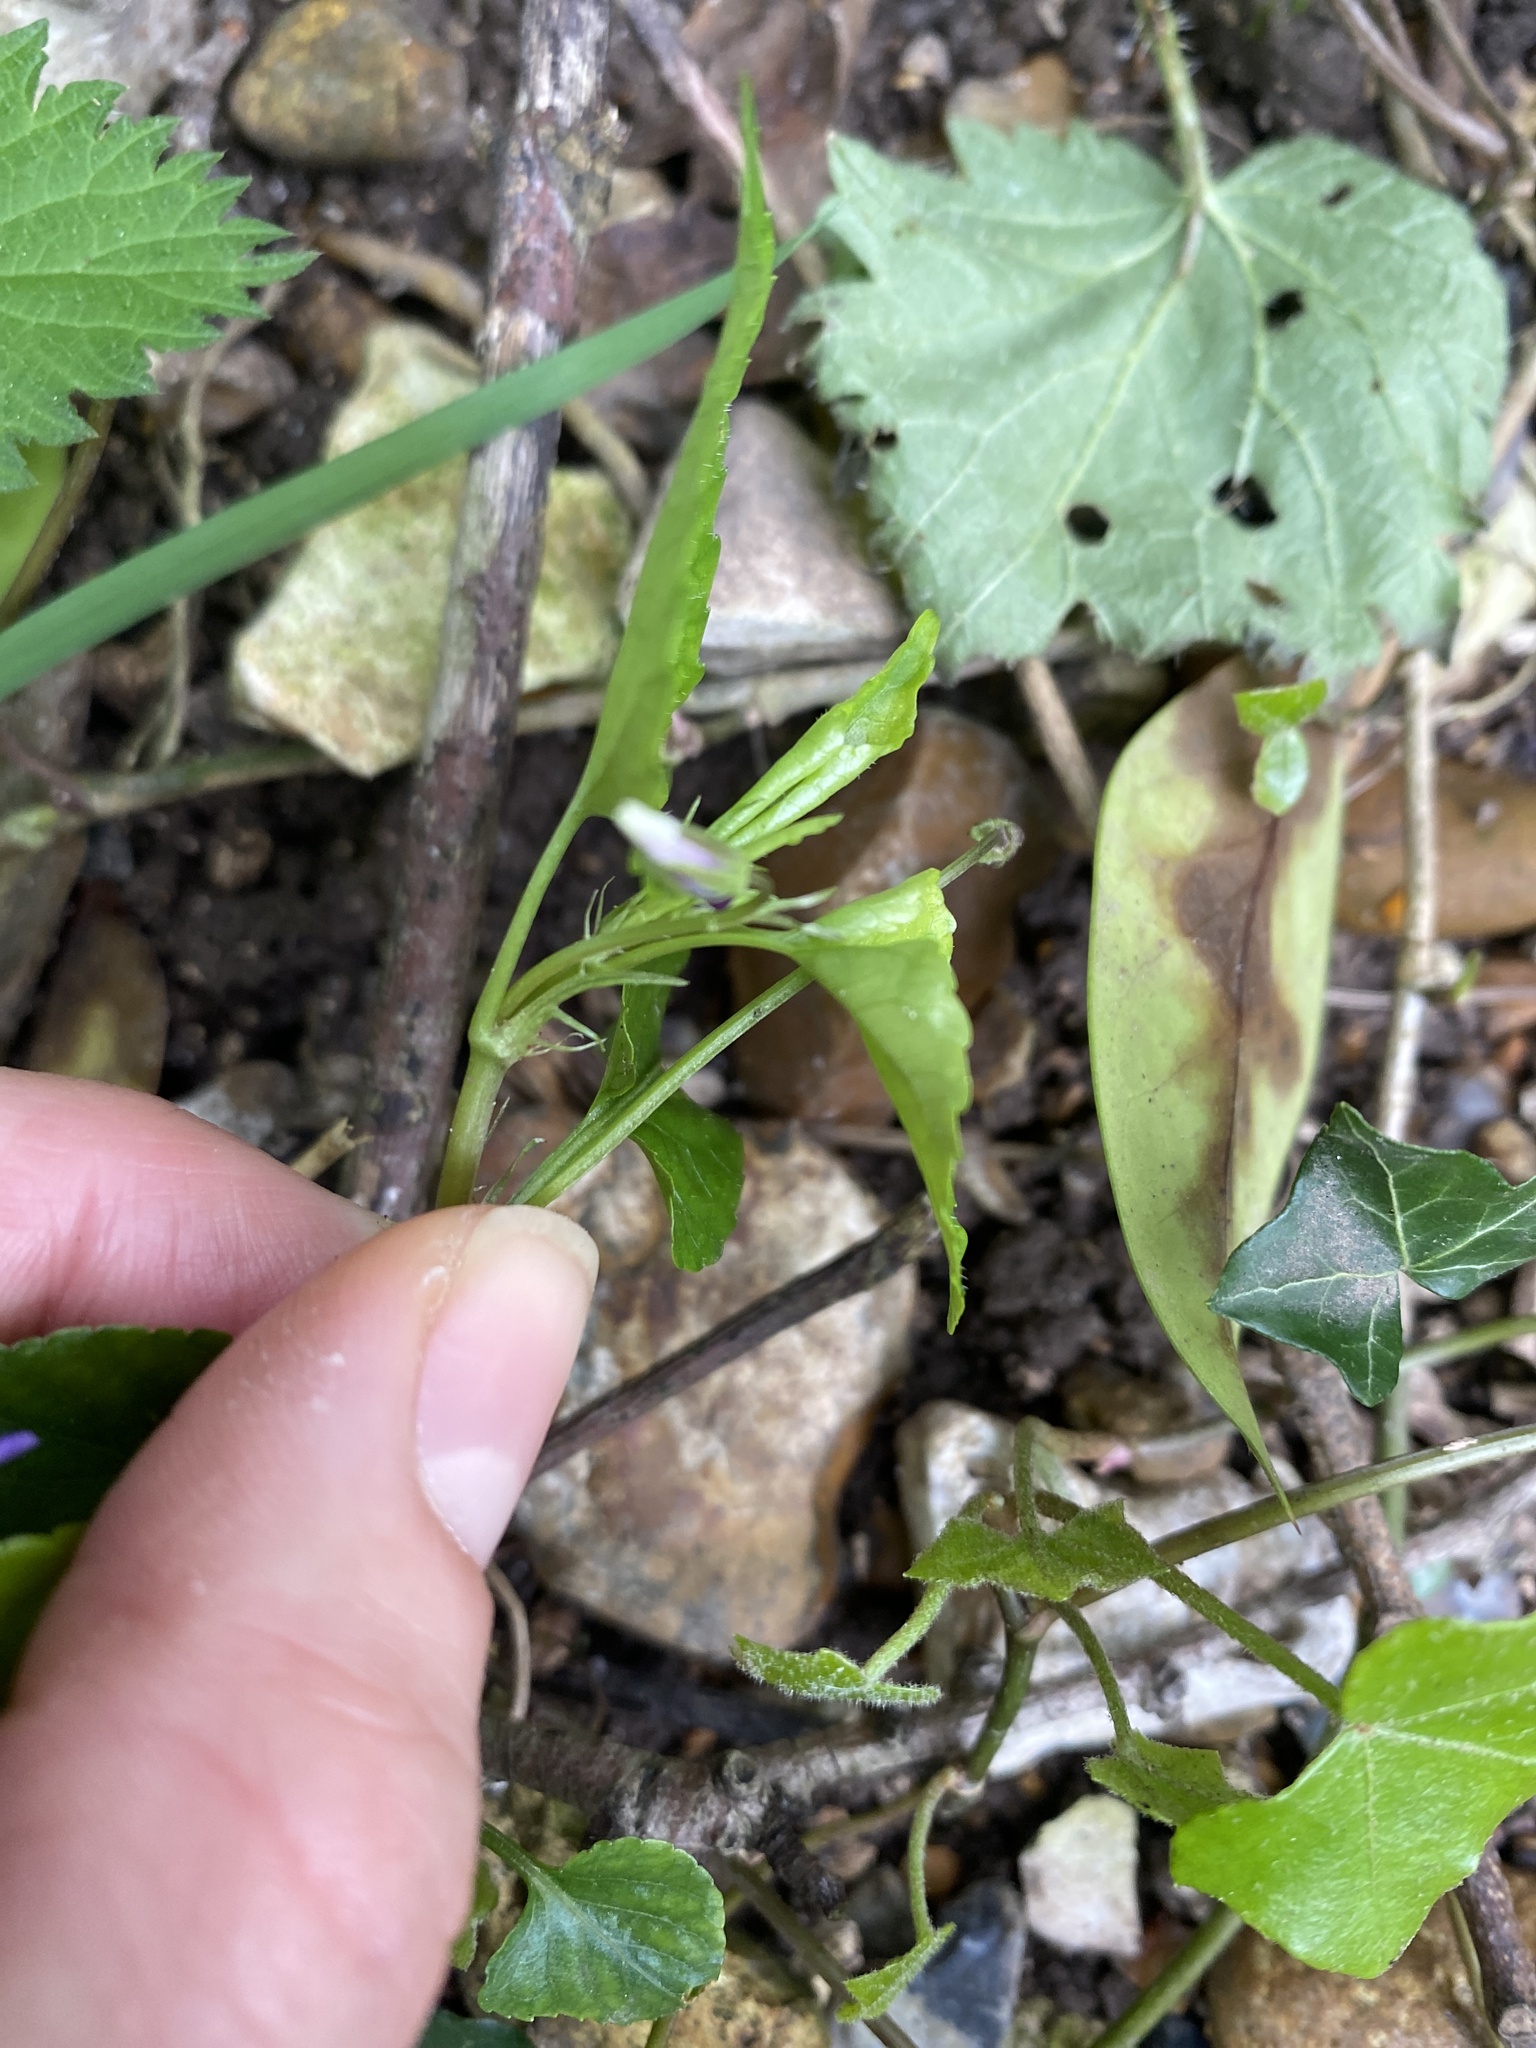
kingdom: Plantae
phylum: Tracheophyta
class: Magnoliopsida
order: Malpighiales
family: Violaceae
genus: Viola
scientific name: Viola reichenbachiana
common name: Early dog-violet
